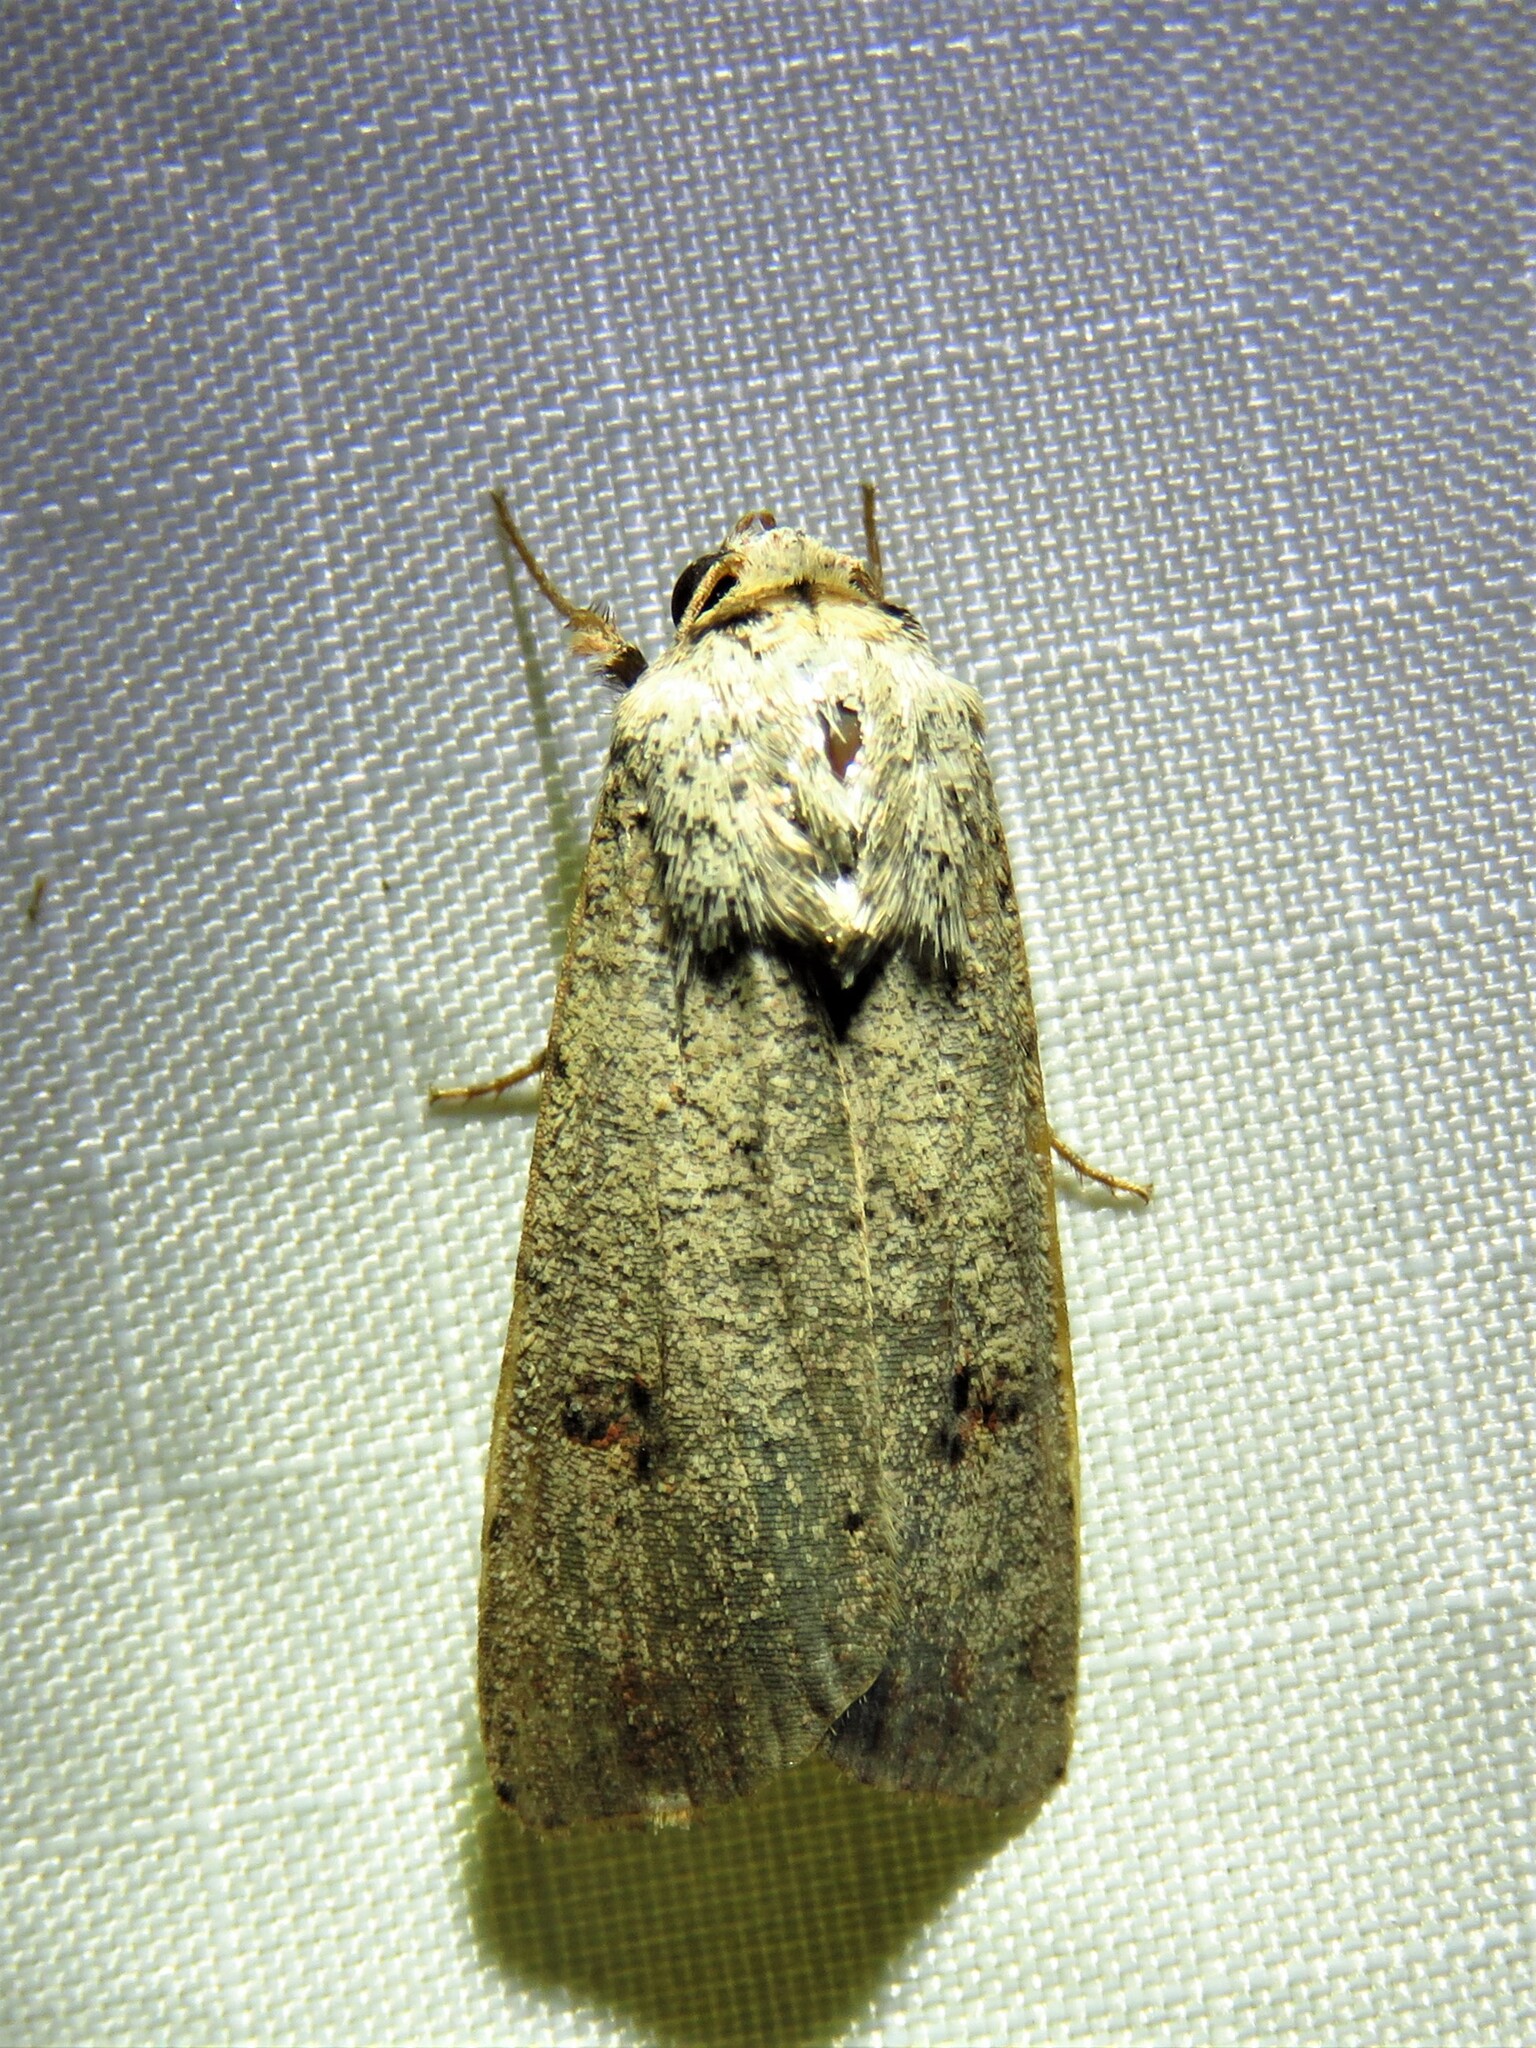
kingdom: Animalia
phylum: Arthropoda
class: Insecta
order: Lepidoptera
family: Noctuidae
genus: Anicla
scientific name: Anicla infecta
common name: Green cutworm
